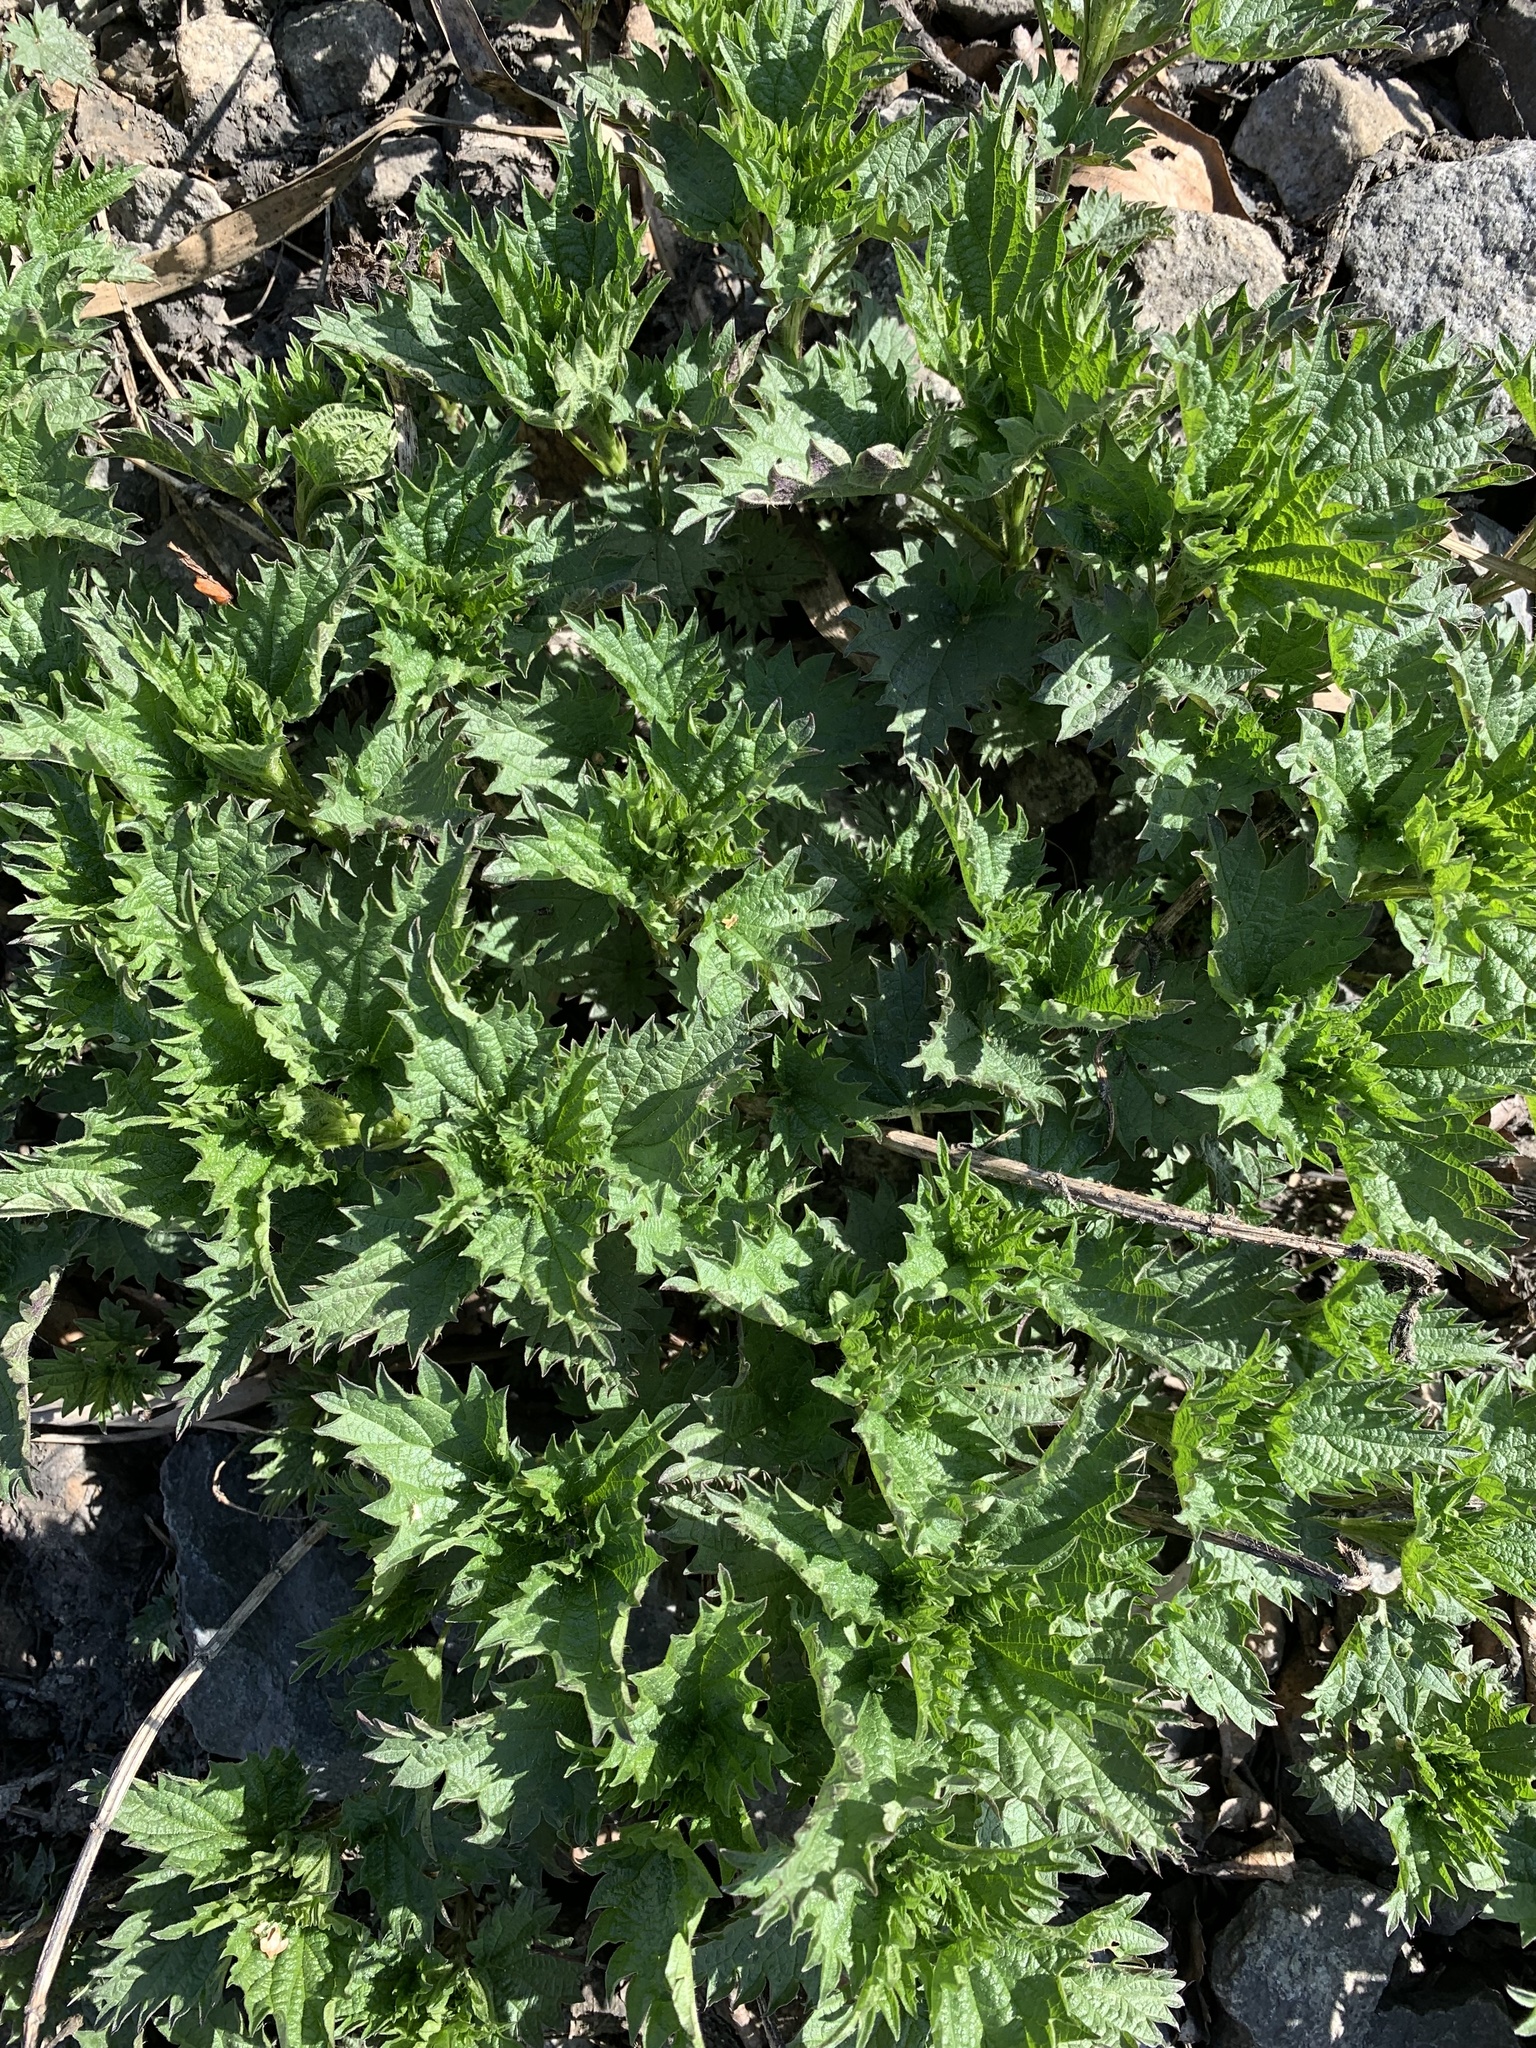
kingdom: Plantae
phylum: Tracheophyta
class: Magnoliopsida
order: Rosales
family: Urticaceae
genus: Urtica
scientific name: Urtica dioica
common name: Common nettle
